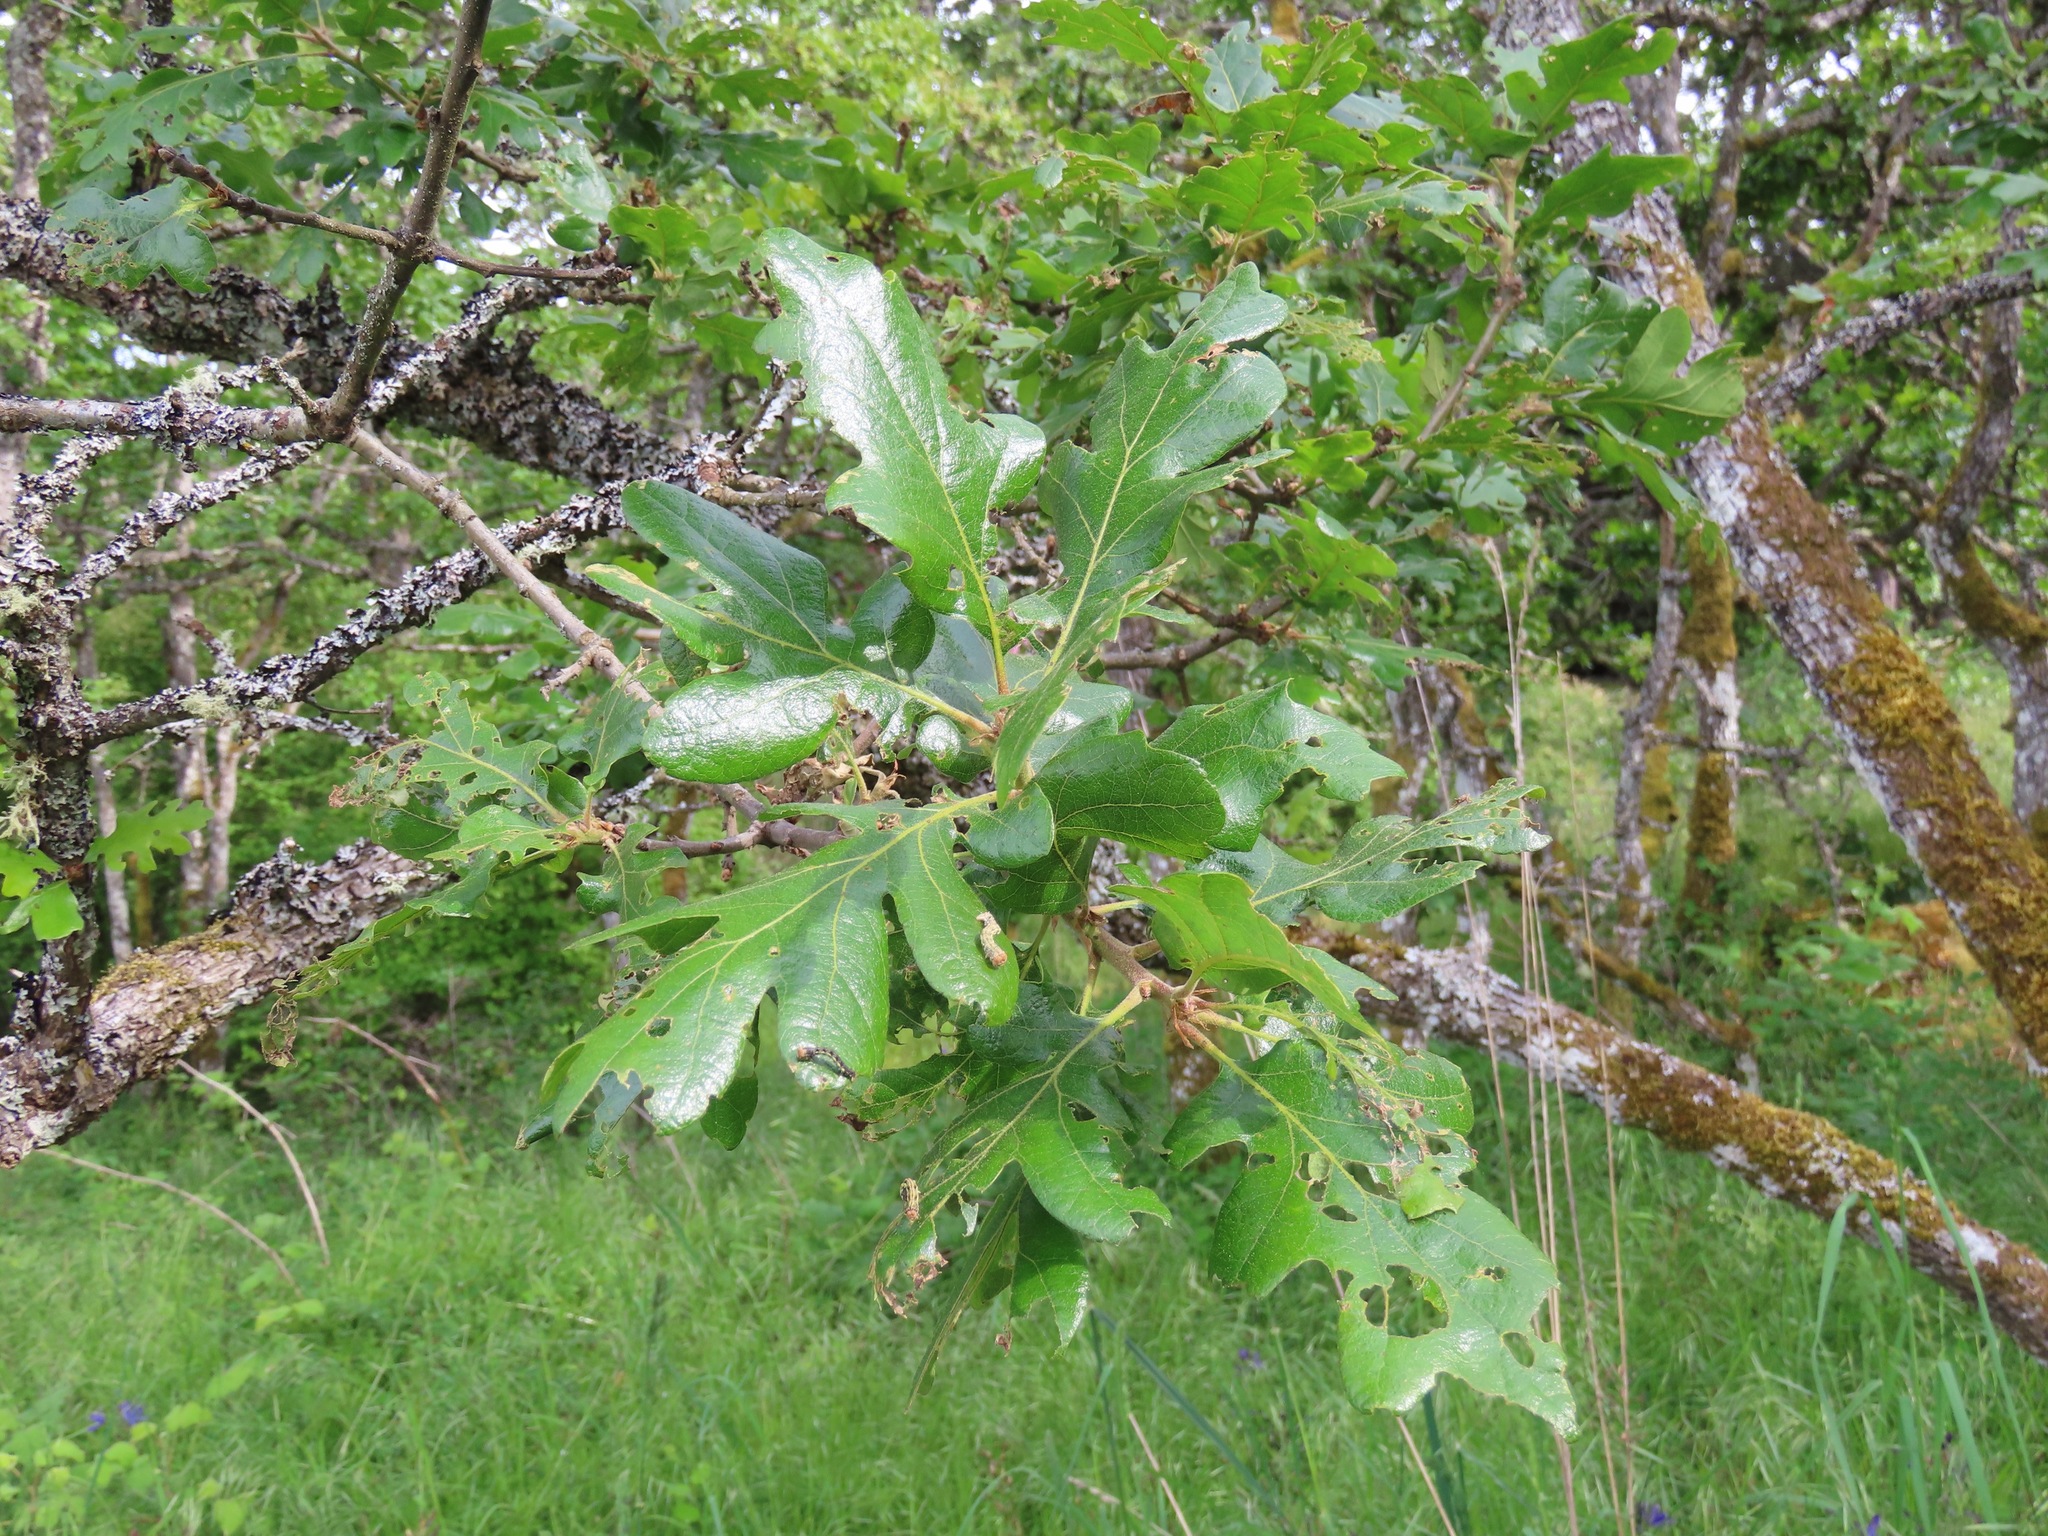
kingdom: Plantae
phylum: Tracheophyta
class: Magnoliopsida
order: Fagales
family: Fagaceae
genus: Quercus
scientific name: Quercus garryana
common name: Garry oak
